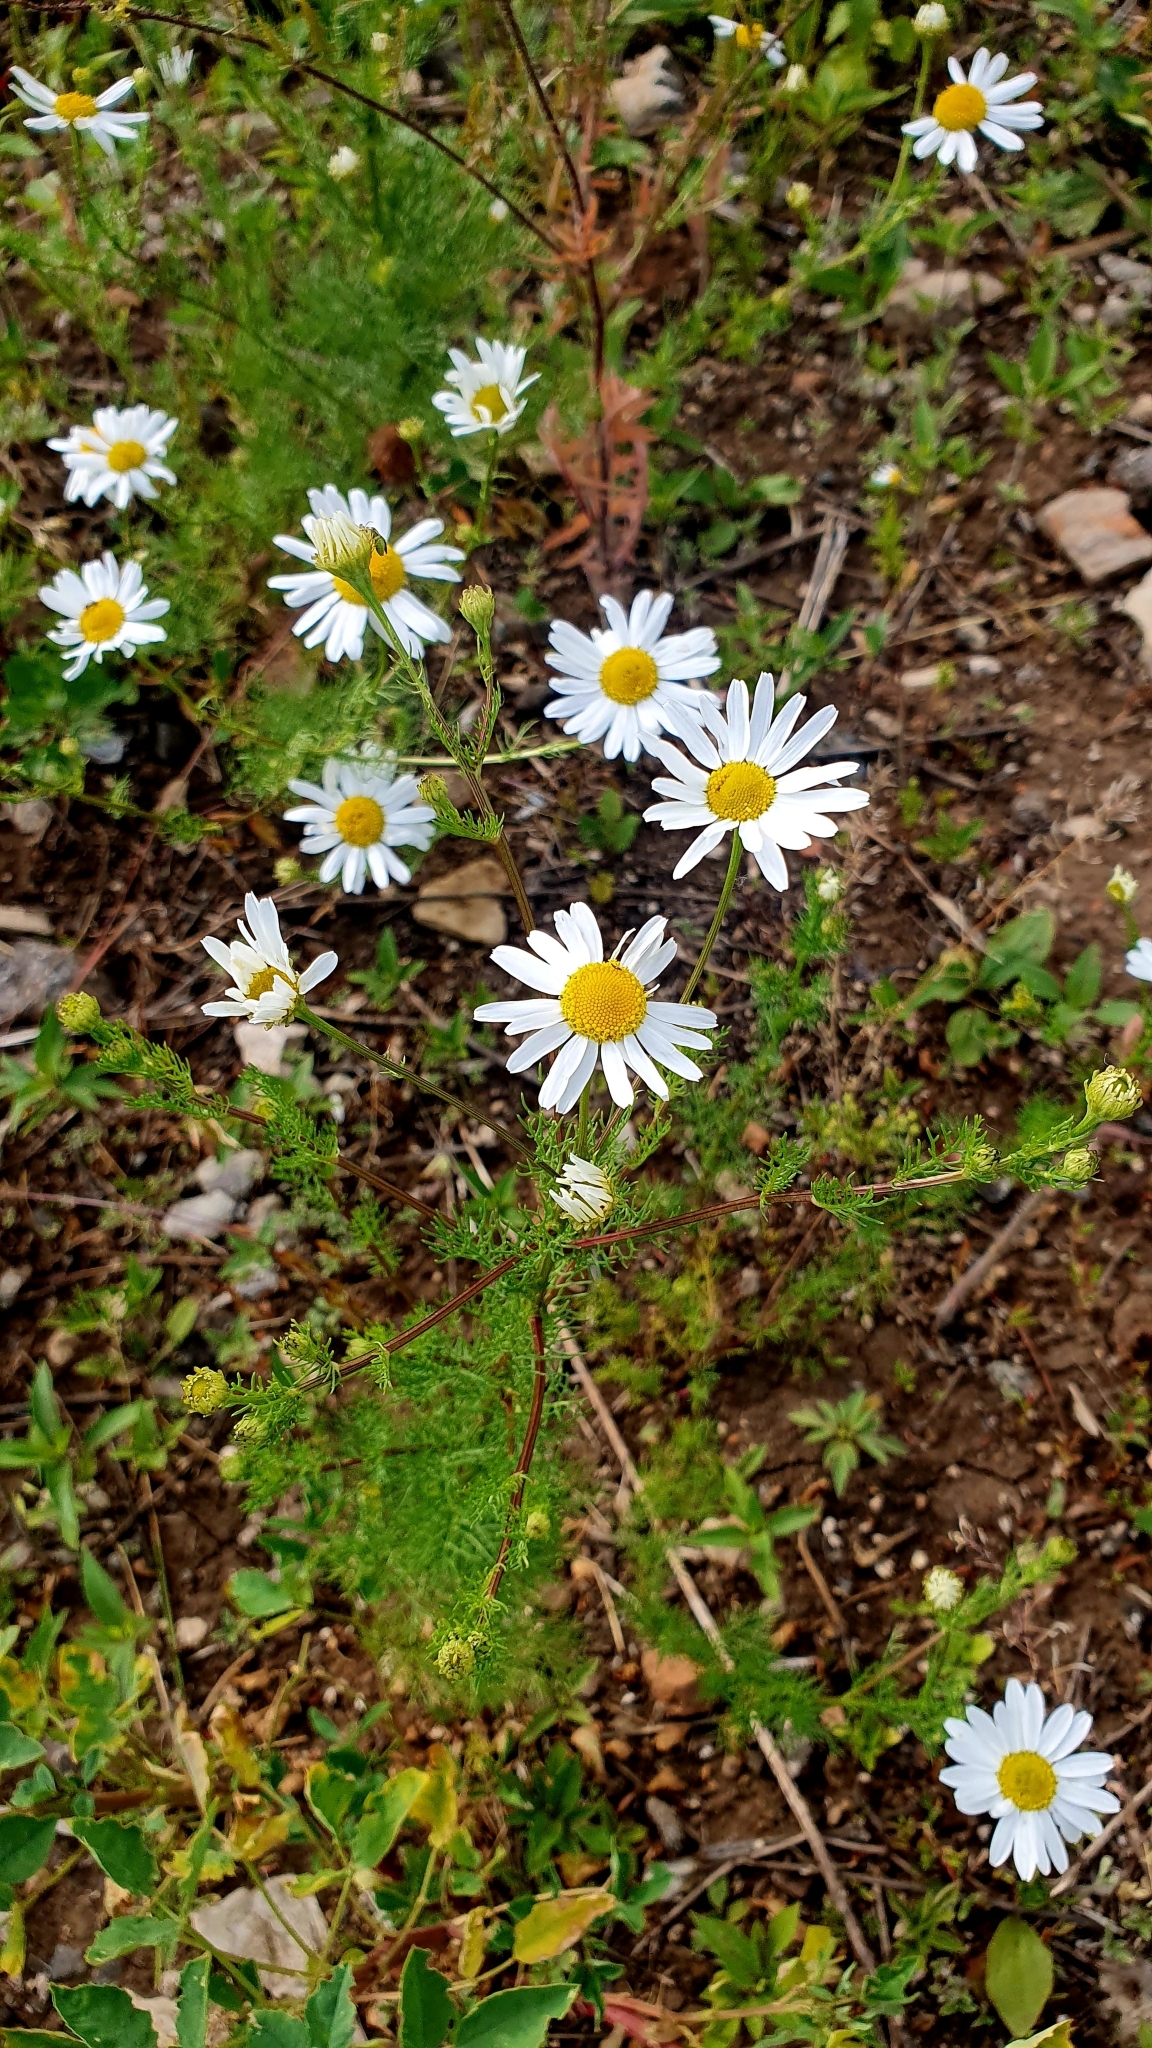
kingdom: Plantae
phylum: Tracheophyta
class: Magnoliopsida
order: Asterales
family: Asteraceae
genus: Tripleurospermum
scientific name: Tripleurospermum inodorum
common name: Scentless mayweed
